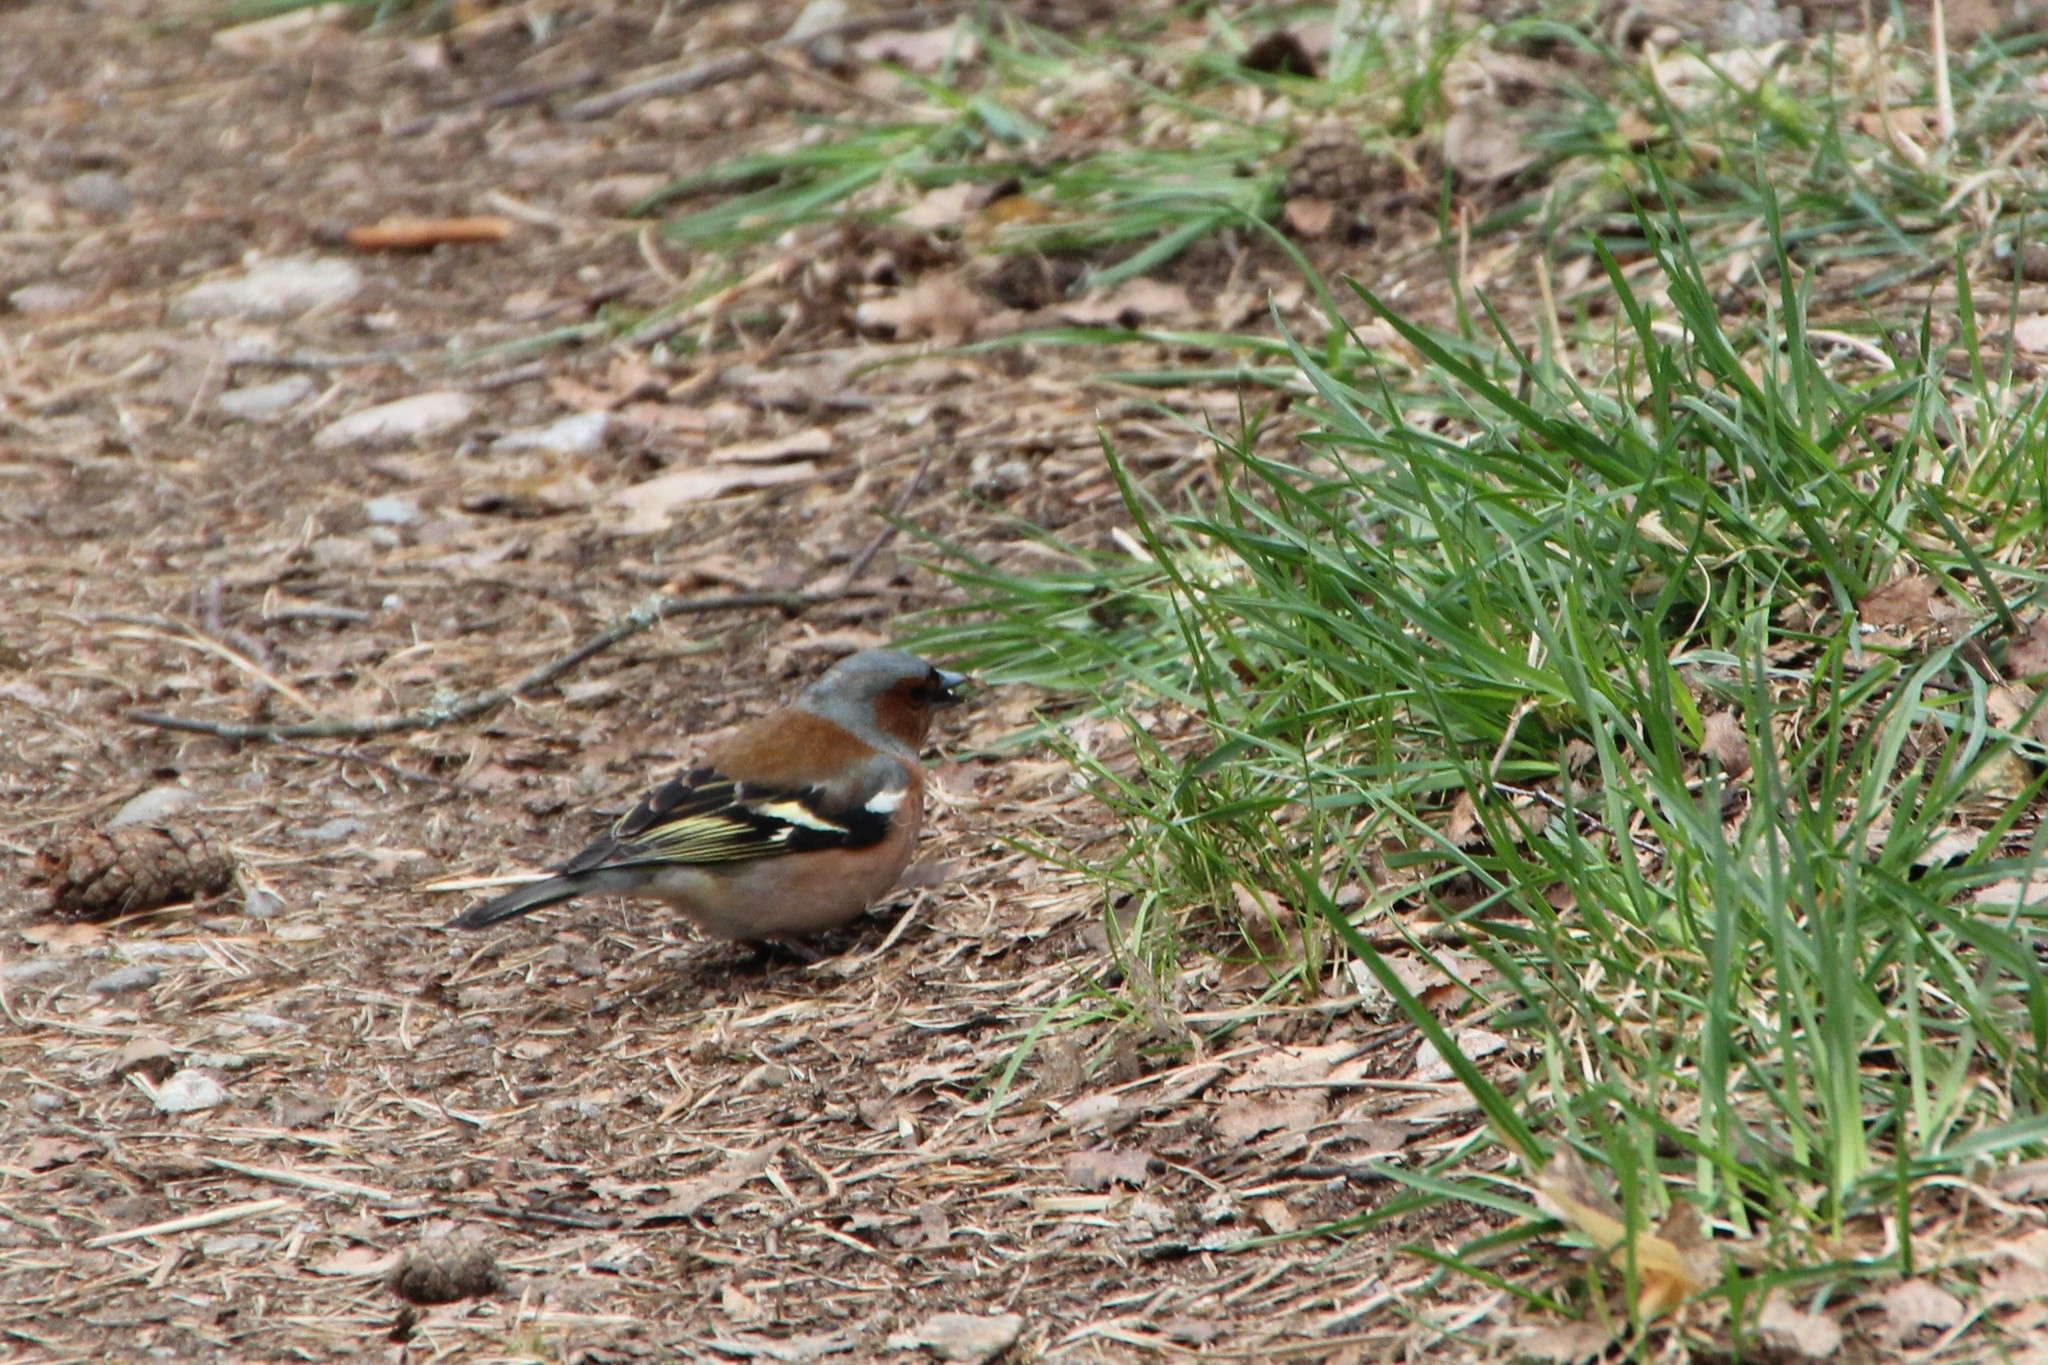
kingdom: Animalia
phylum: Chordata
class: Aves
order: Passeriformes
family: Fringillidae
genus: Fringilla
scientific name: Fringilla coelebs
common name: Common chaffinch
